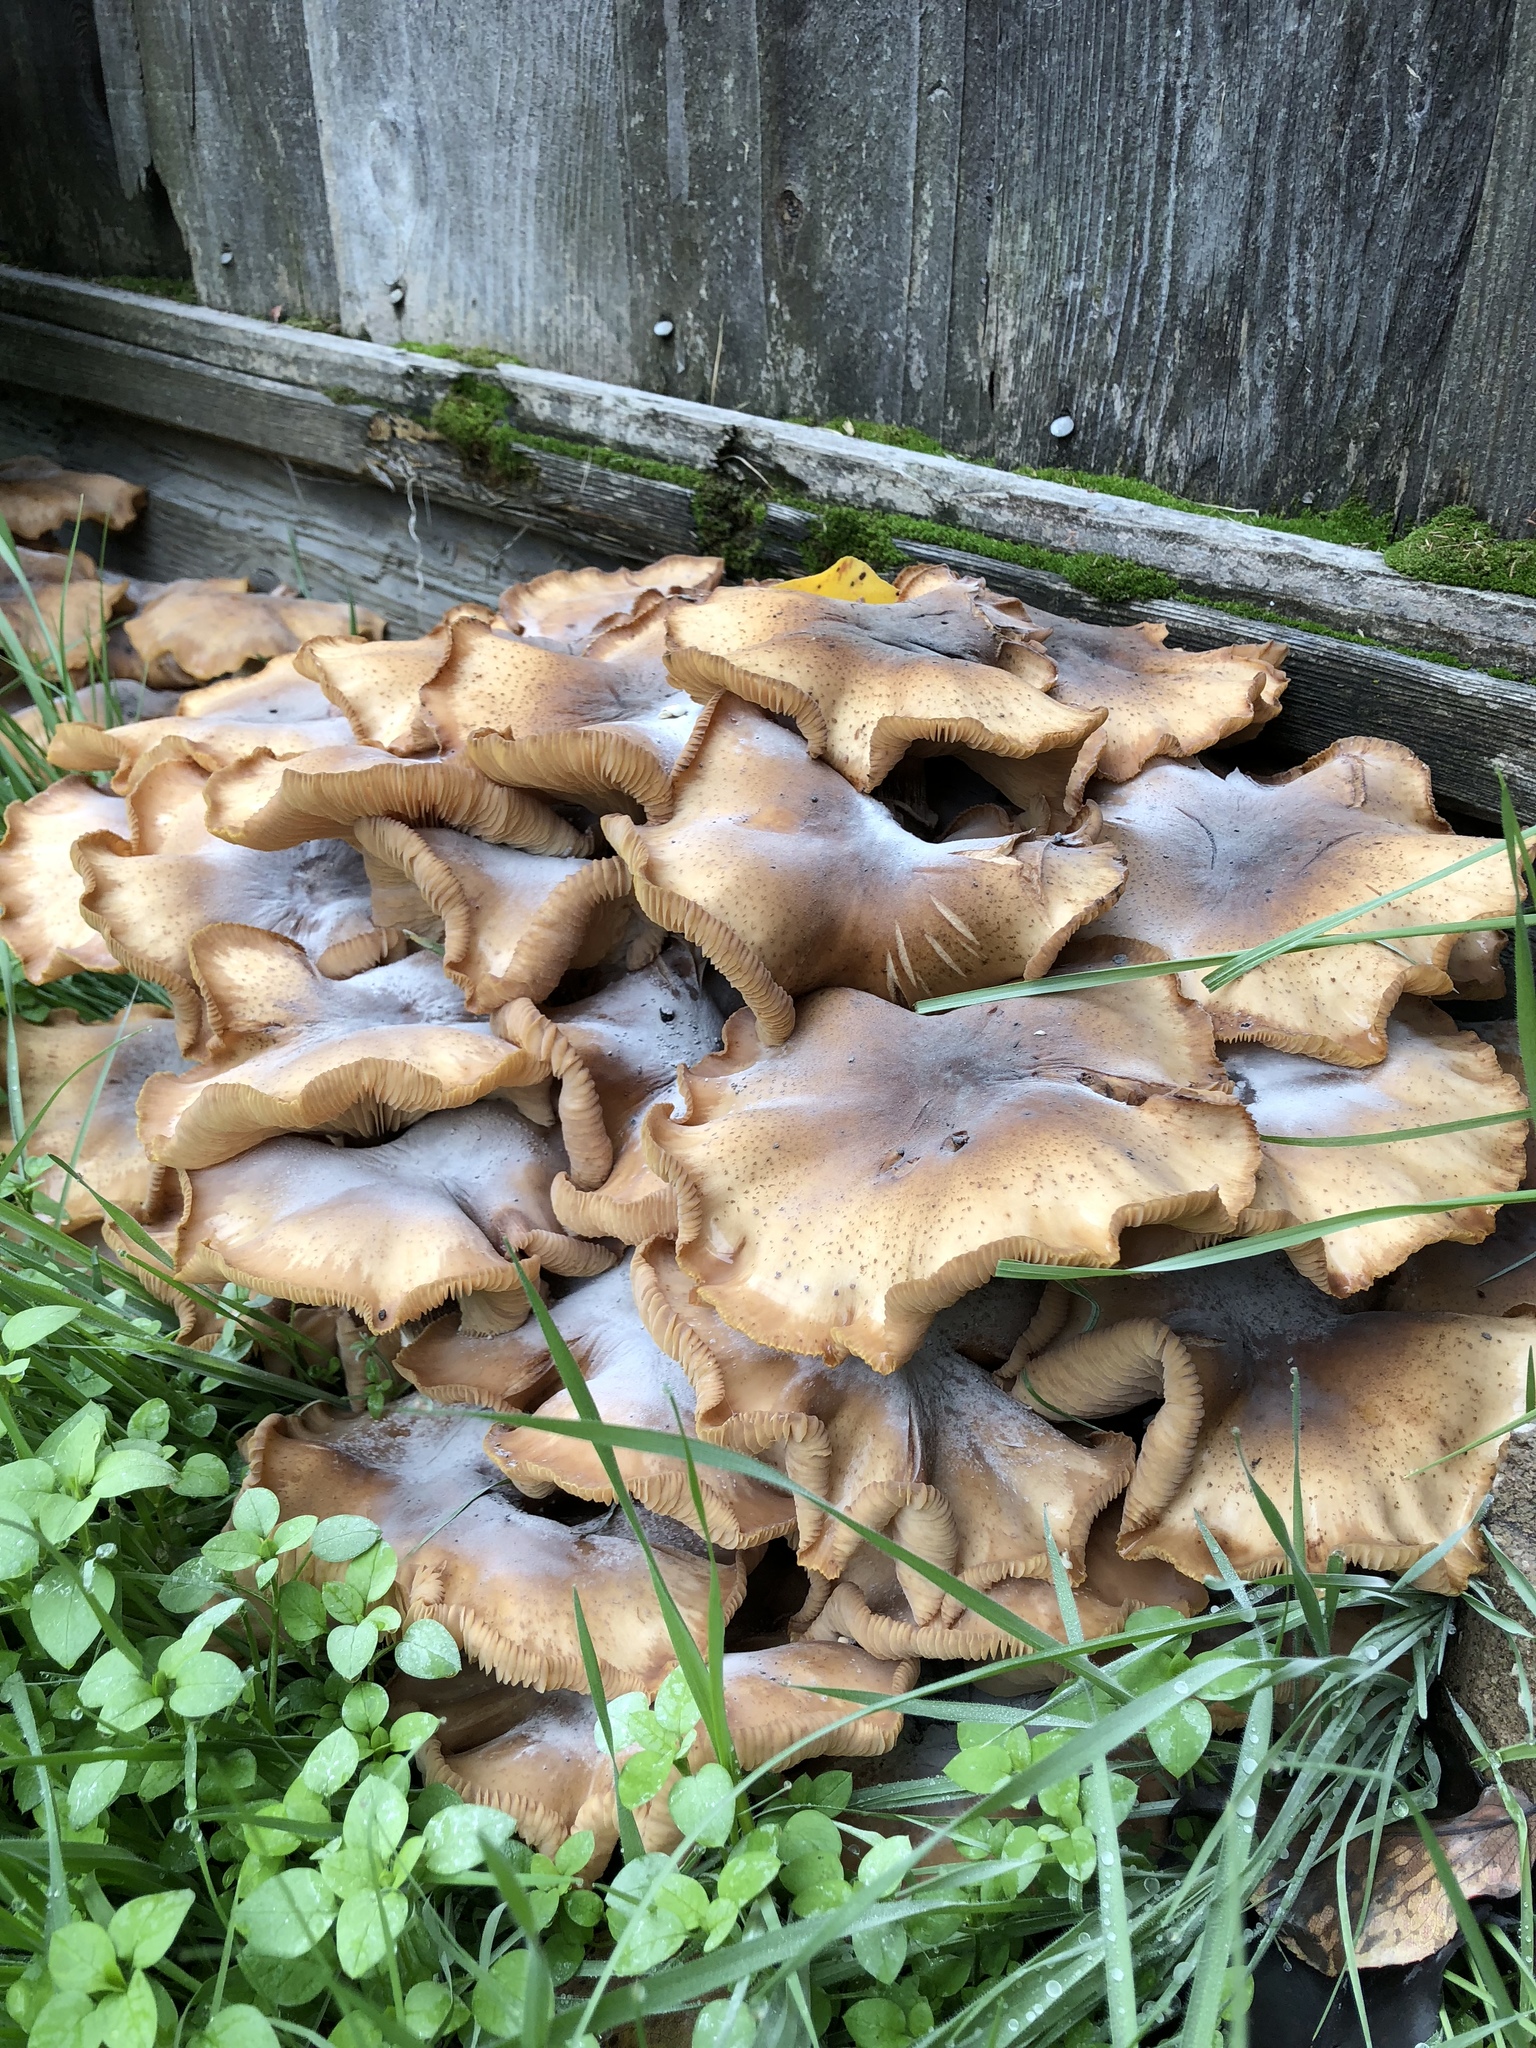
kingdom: Fungi
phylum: Basidiomycota
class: Agaricomycetes
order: Agaricales
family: Physalacriaceae
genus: Armillaria
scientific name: Armillaria mellea
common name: Honey fungus
